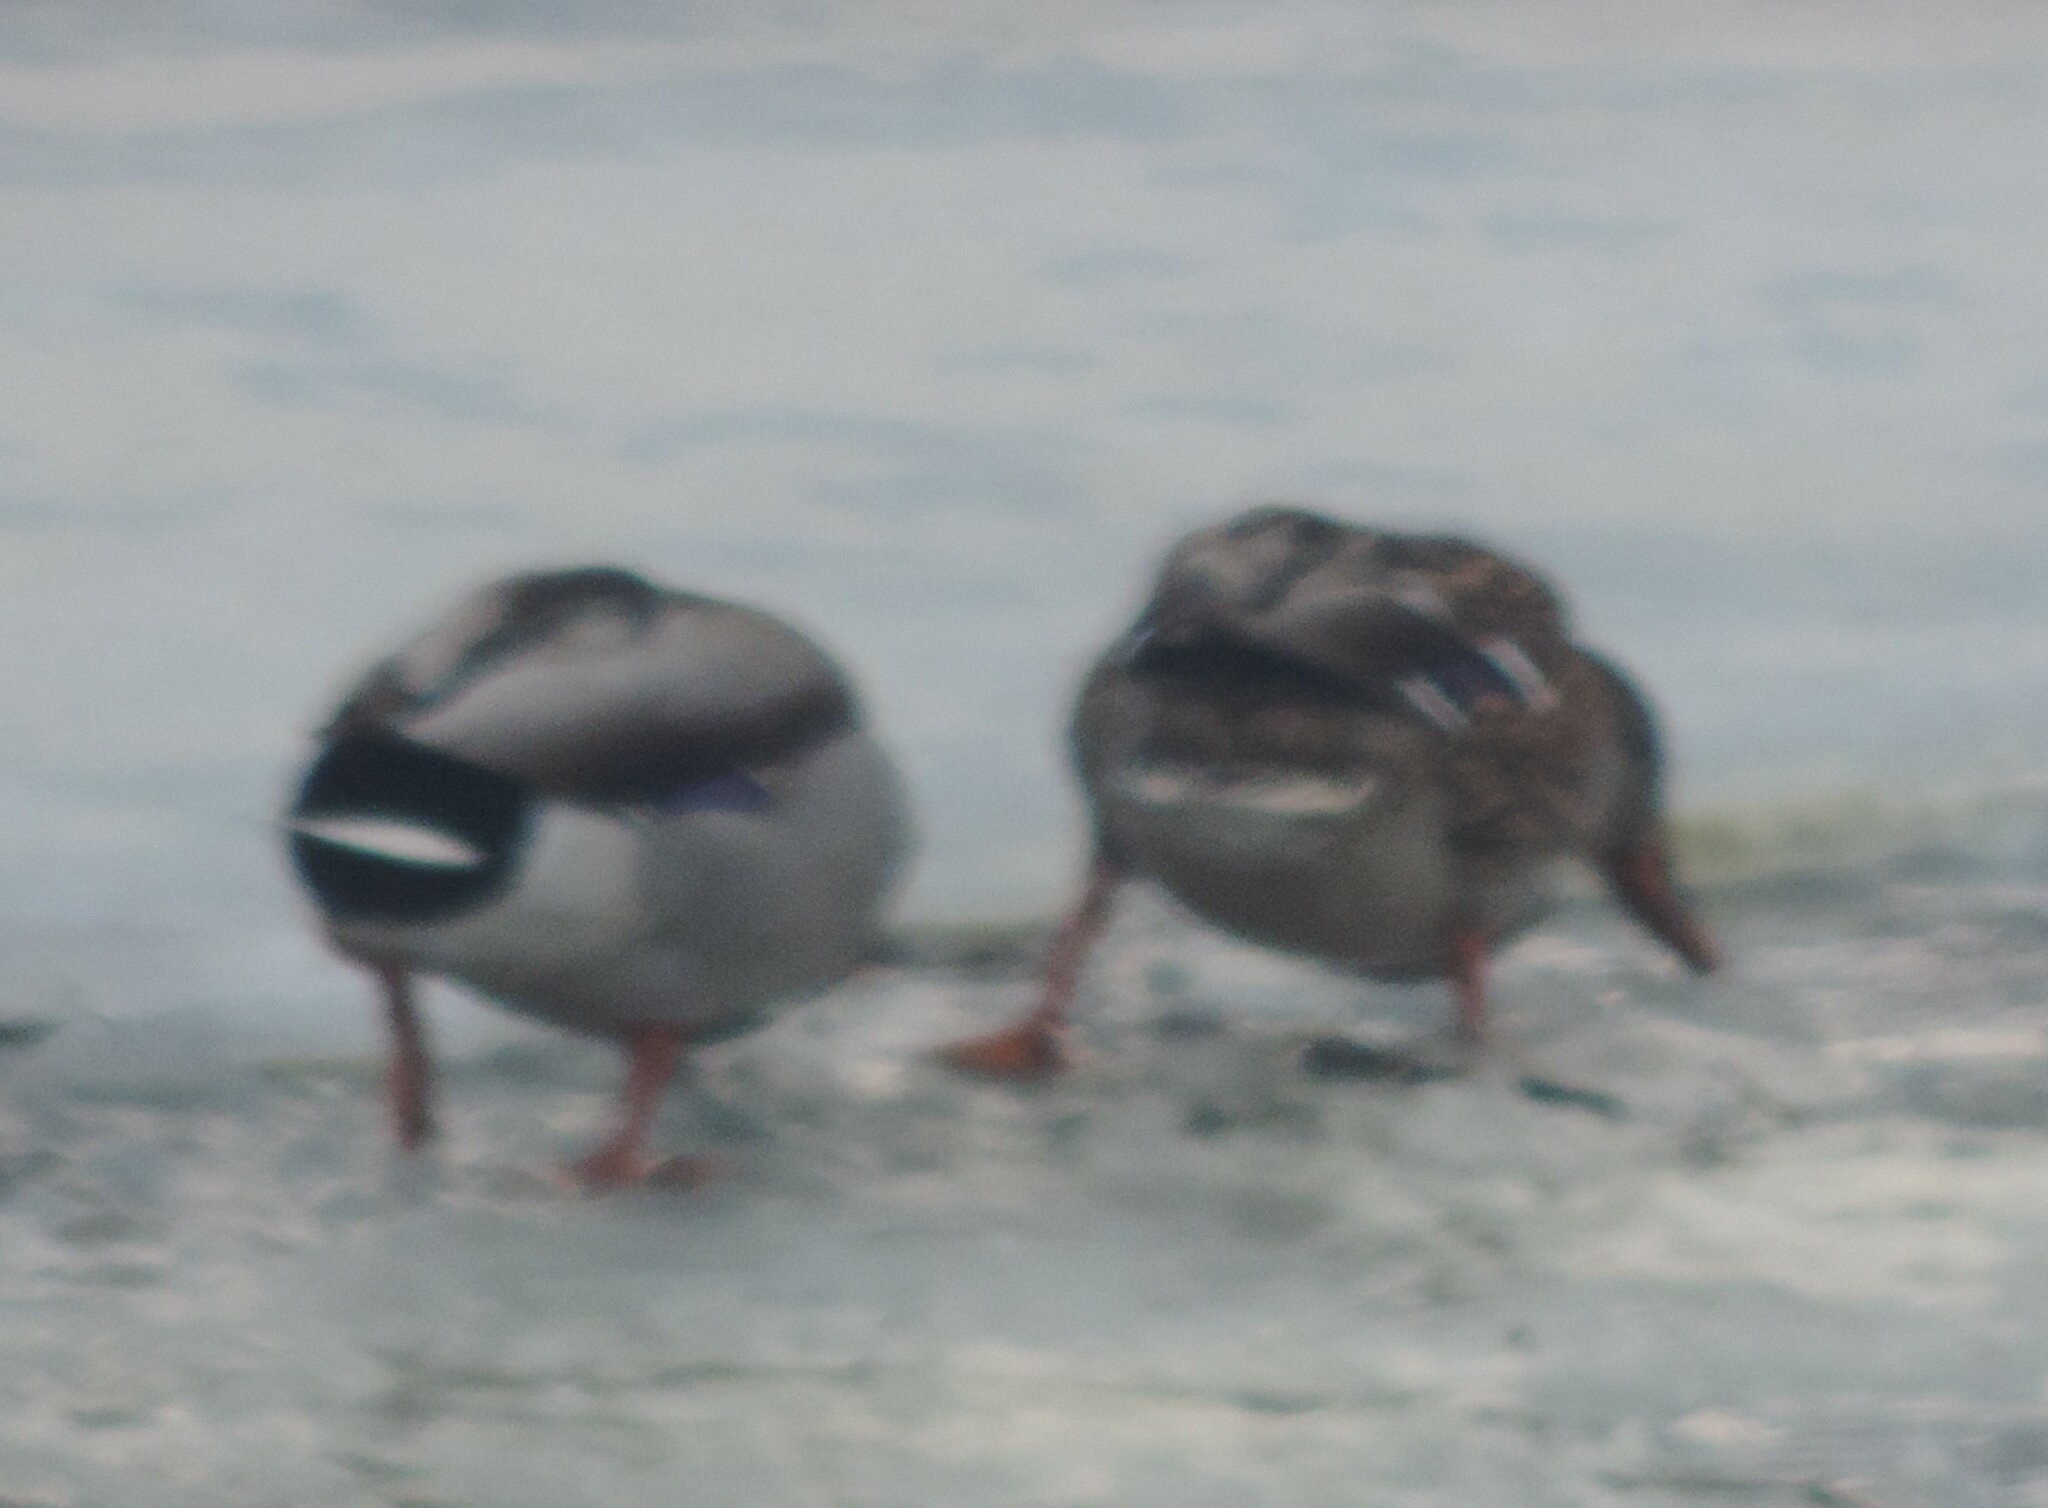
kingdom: Animalia
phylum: Chordata
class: Aves
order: Anseriformes
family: Anatidae
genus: Anas
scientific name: Anas platyrhynchos
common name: Mallard
